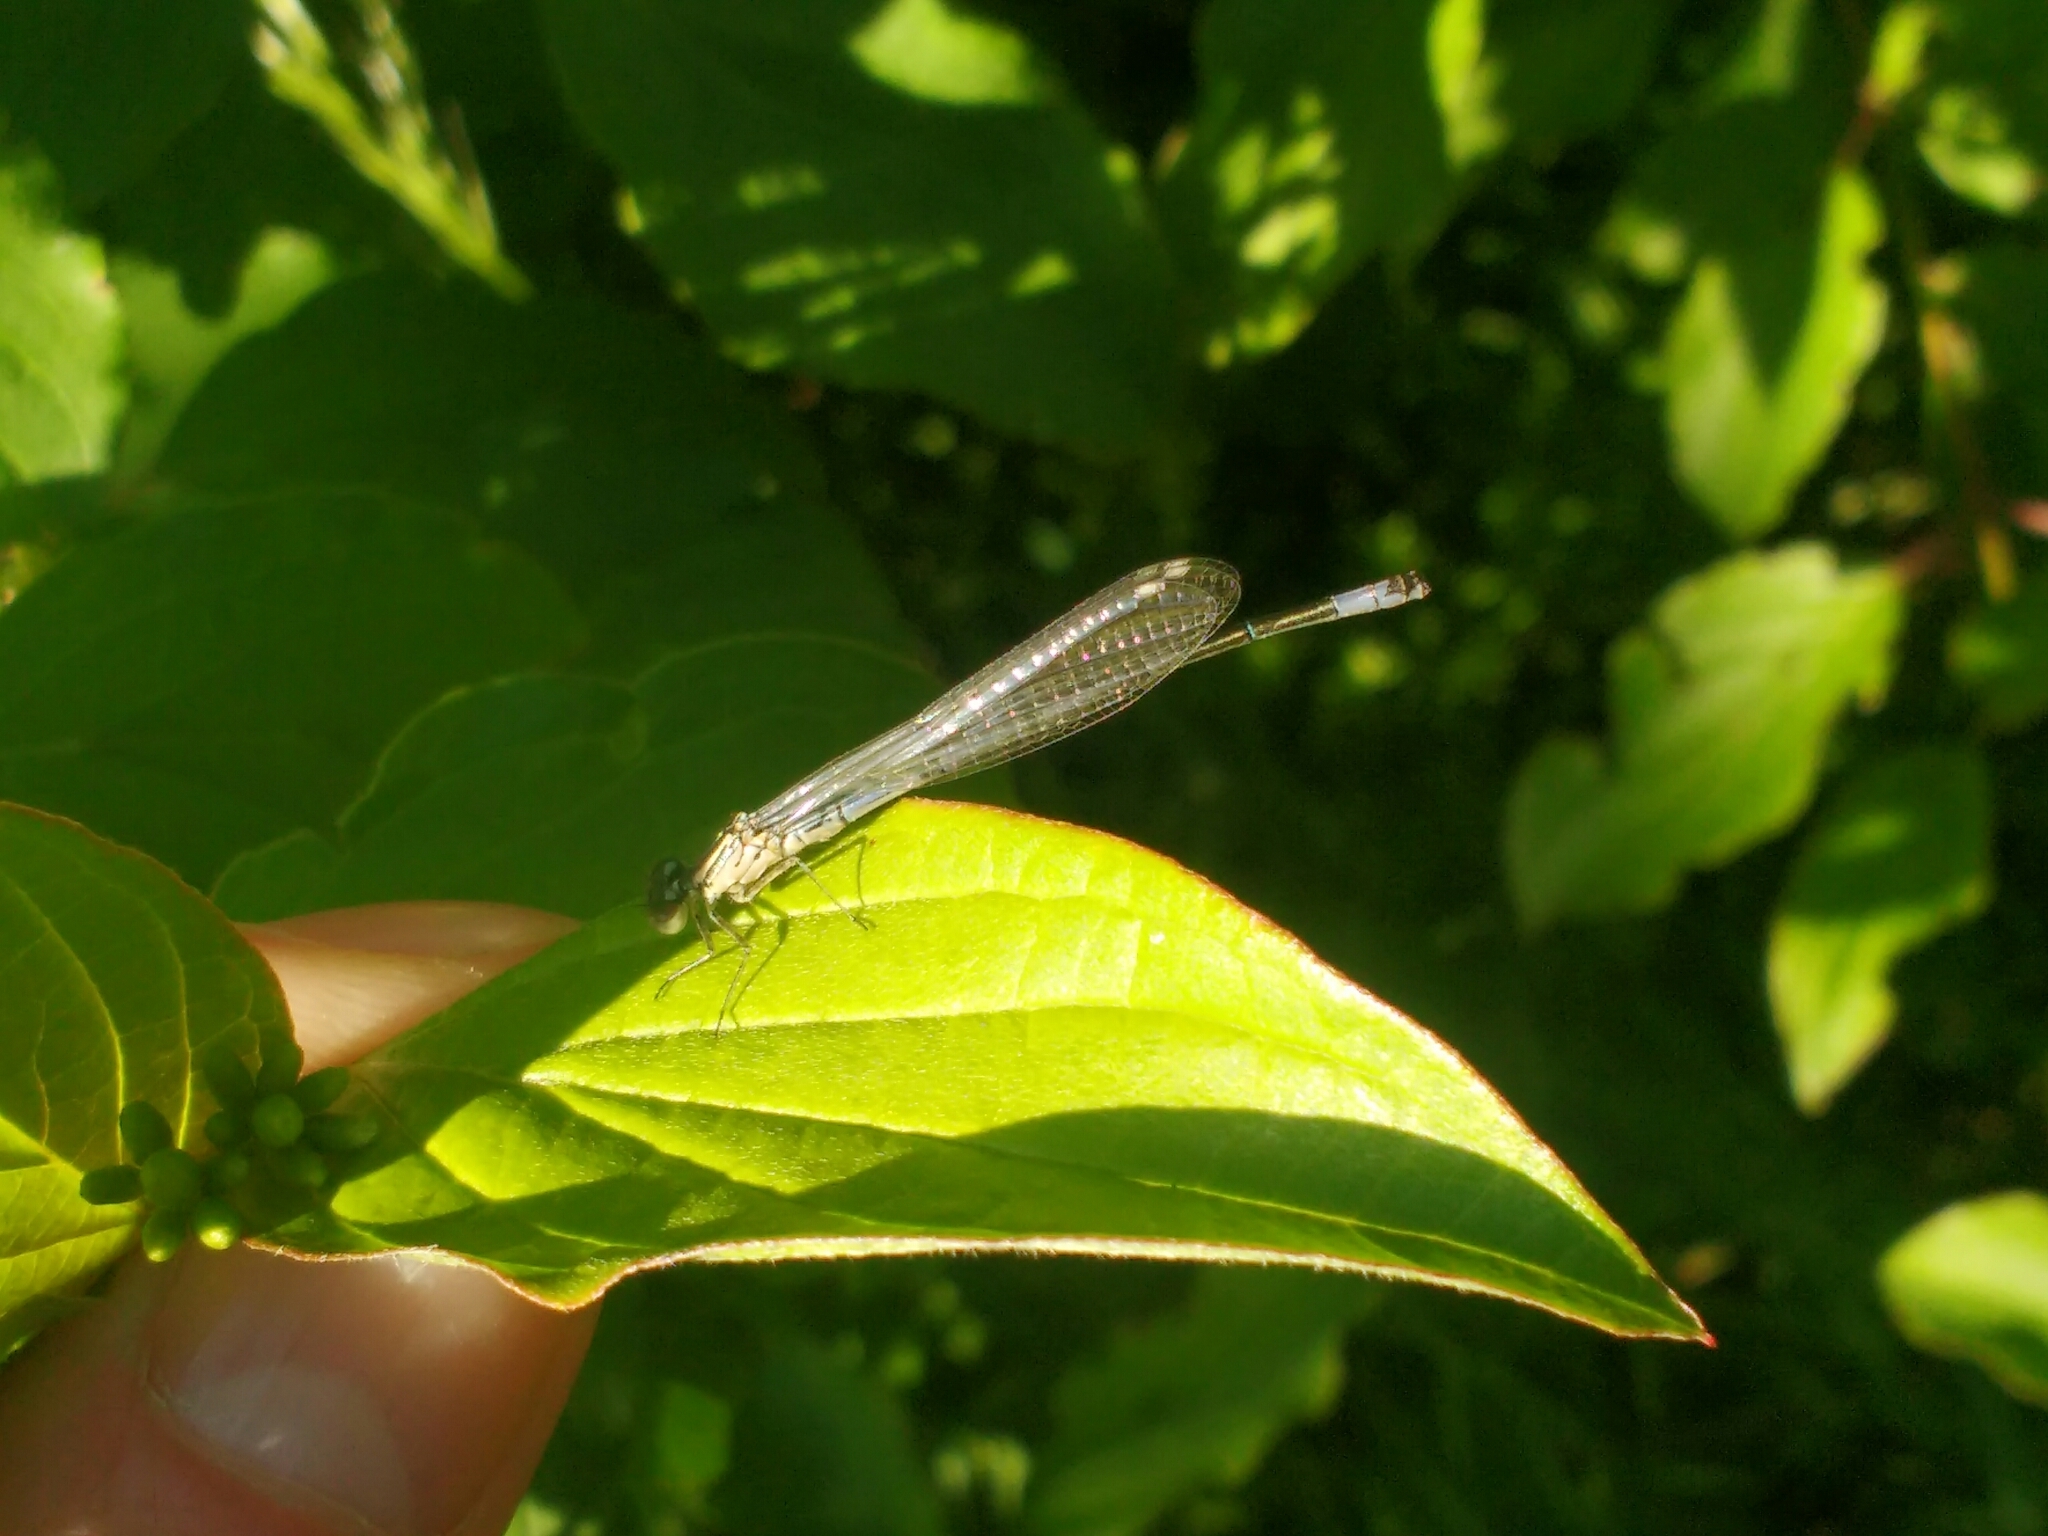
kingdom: Animalia
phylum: Arthropoda
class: Insecta
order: Odonata
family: Coenagrionidae
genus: Coenagrion
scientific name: Coenagrion puella
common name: Azure damselfly
